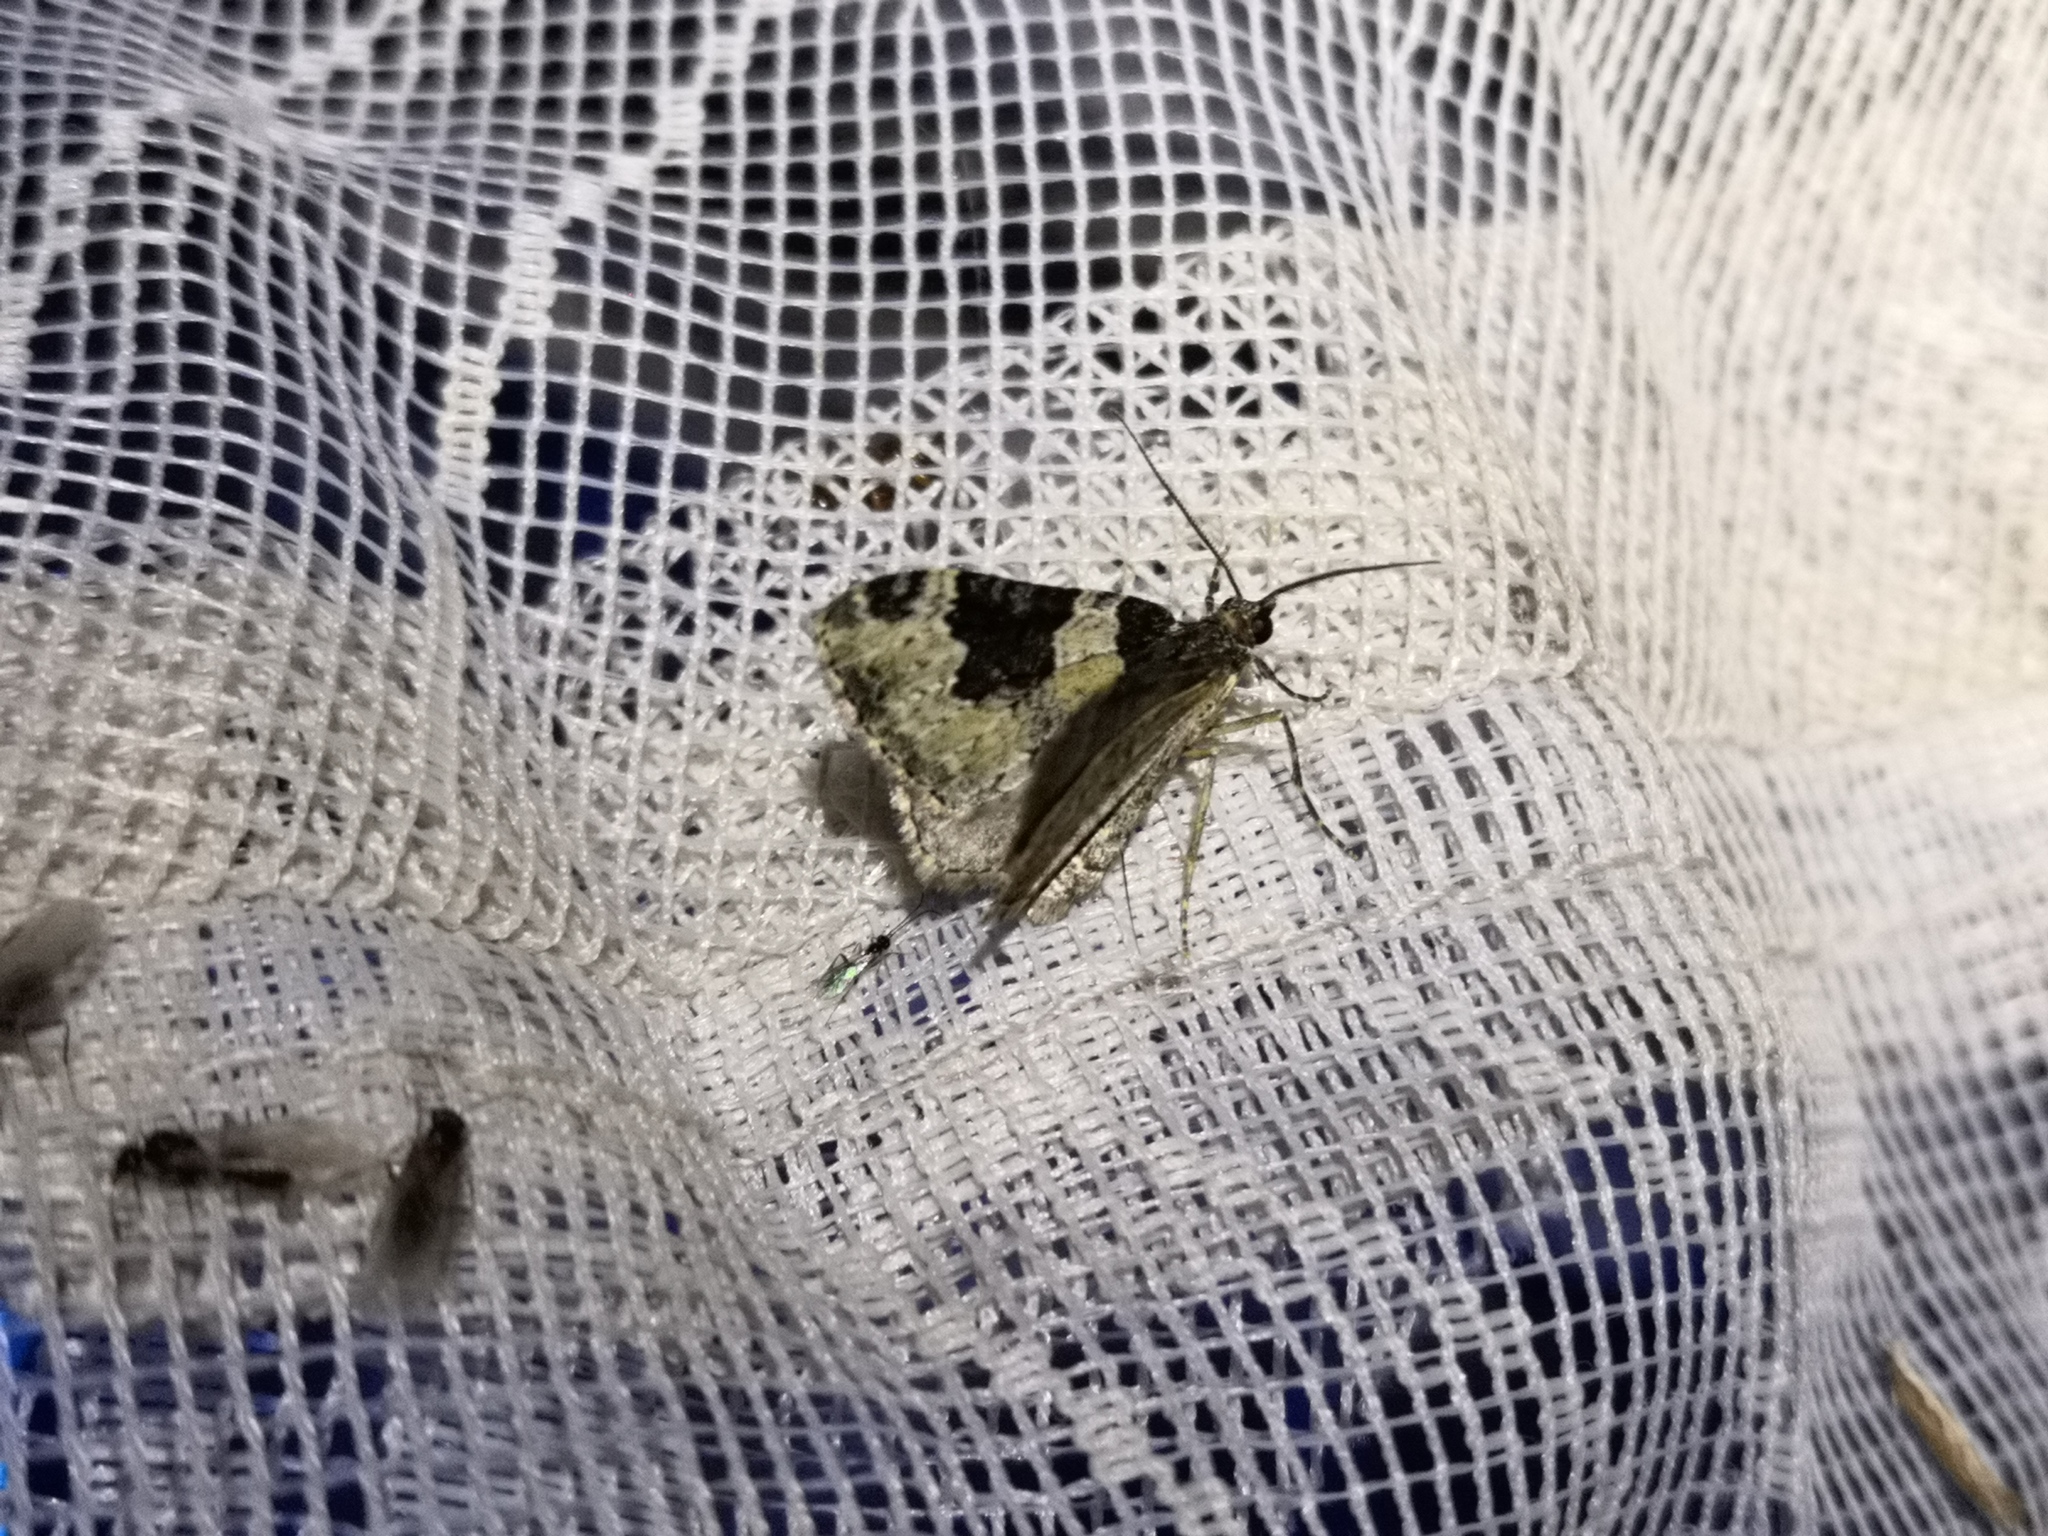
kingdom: Animalia
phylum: Arthropoda
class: Insecta
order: Lepidoptera
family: Geometridae
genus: Xanthorhoe
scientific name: Xanthorhoe fluctuata
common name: Garden carpet
